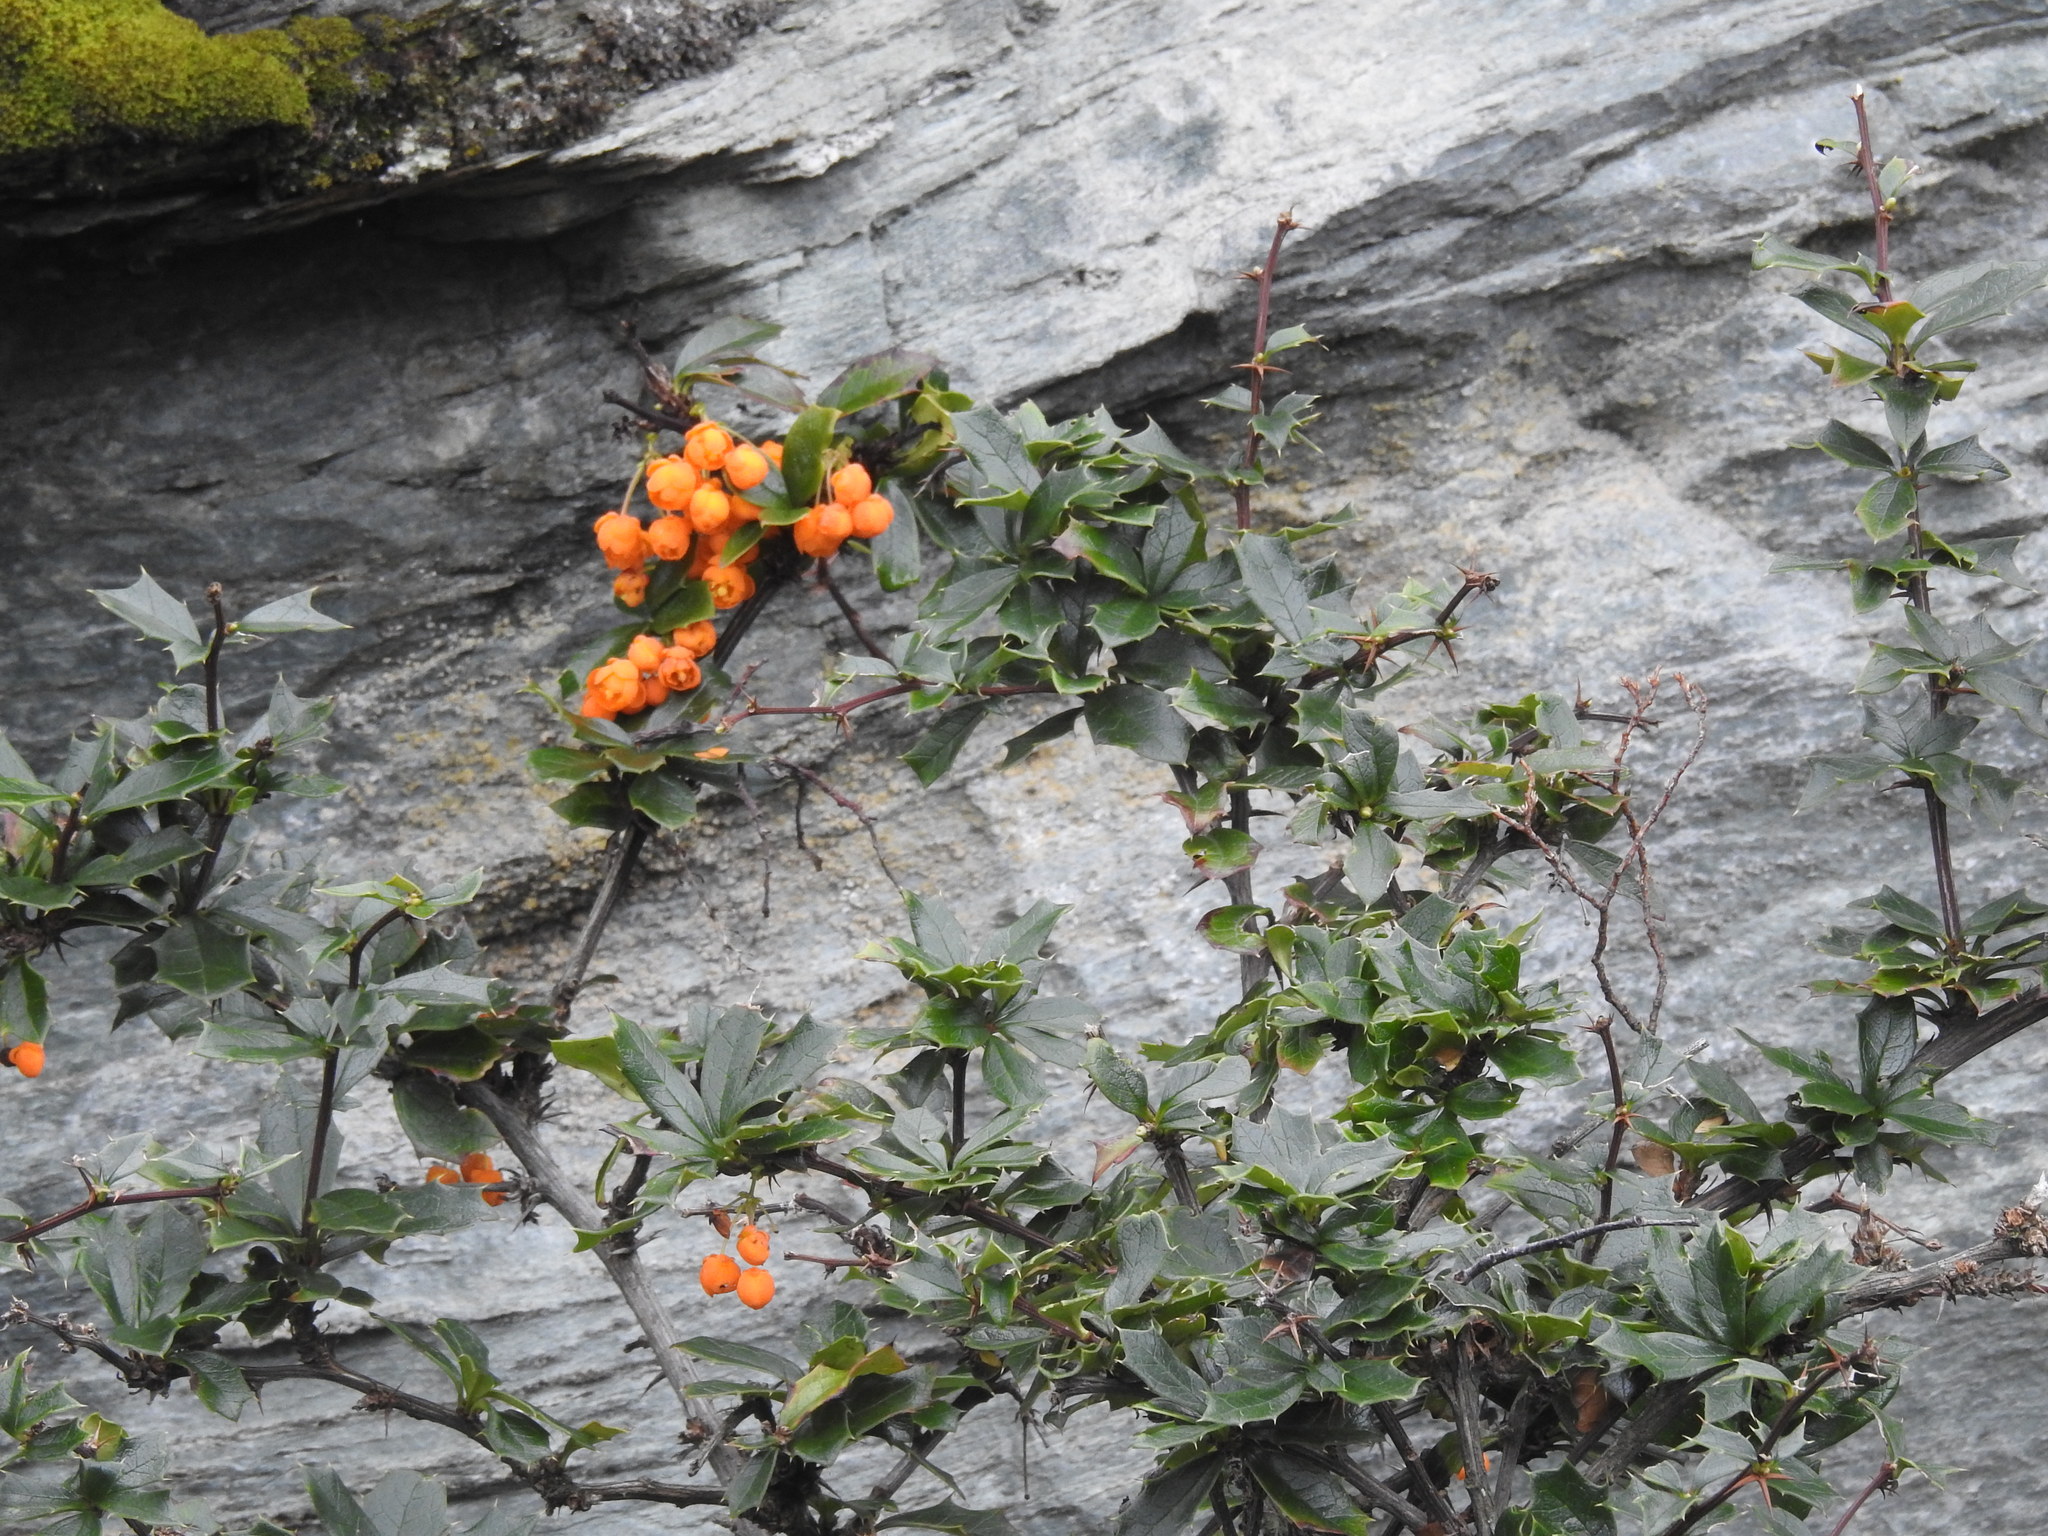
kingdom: Plantae
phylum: Tracheophyta
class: Magnoliopsida
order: Ranunculales
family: Berberidaceae
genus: Berberis
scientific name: Berberis ilicifolia
